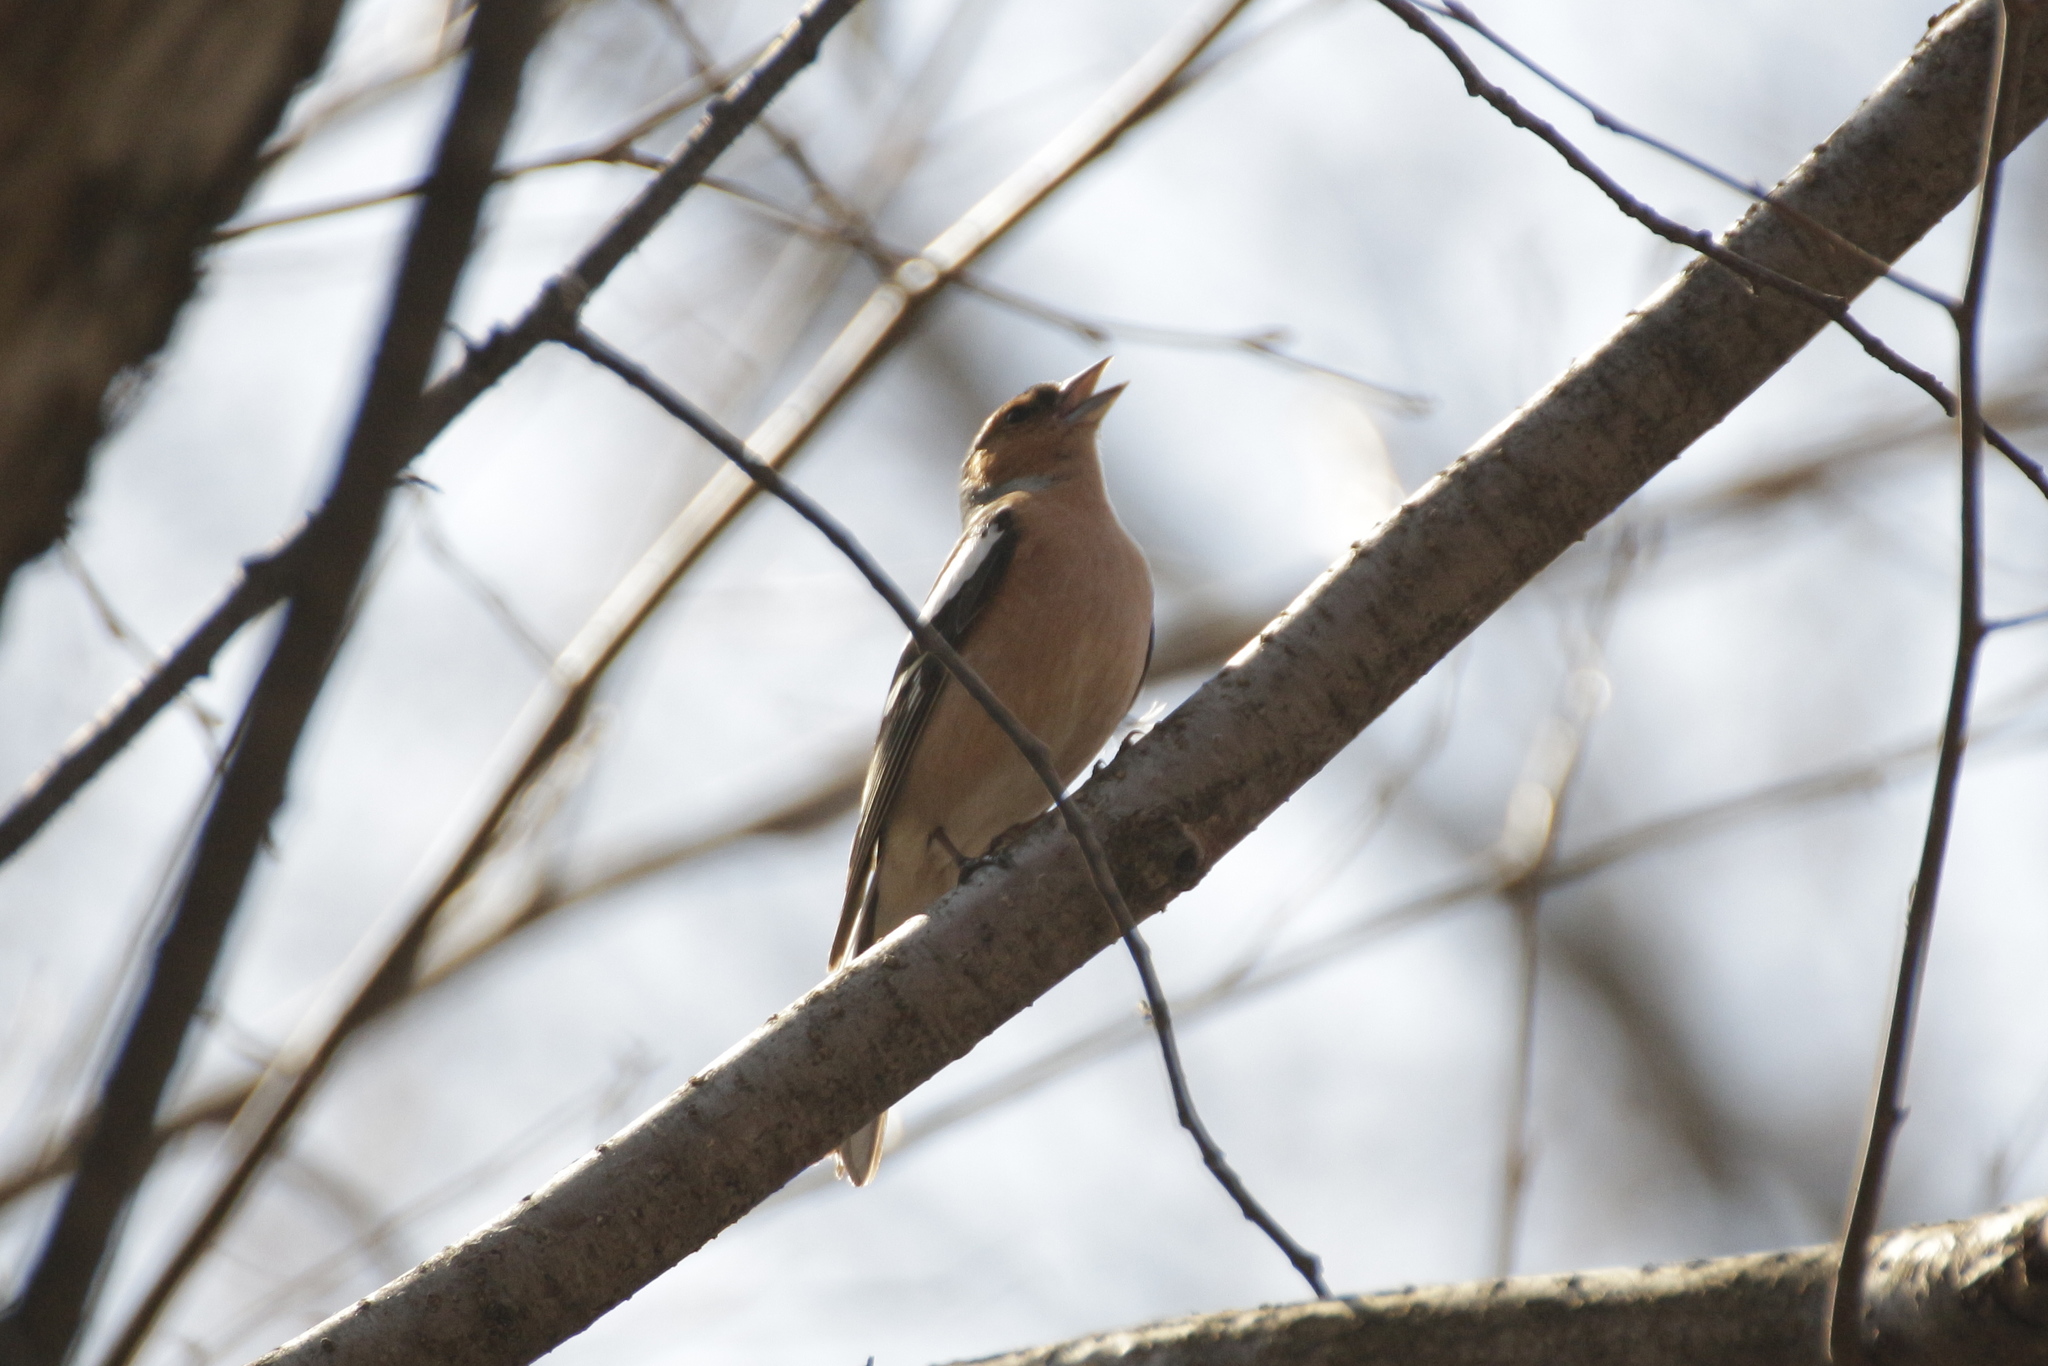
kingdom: Animalia
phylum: Chordata
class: Aves
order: Passeriformes
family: Fringillidae
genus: Fringilla
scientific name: Fringilla coelebs
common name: Common chaffinch
